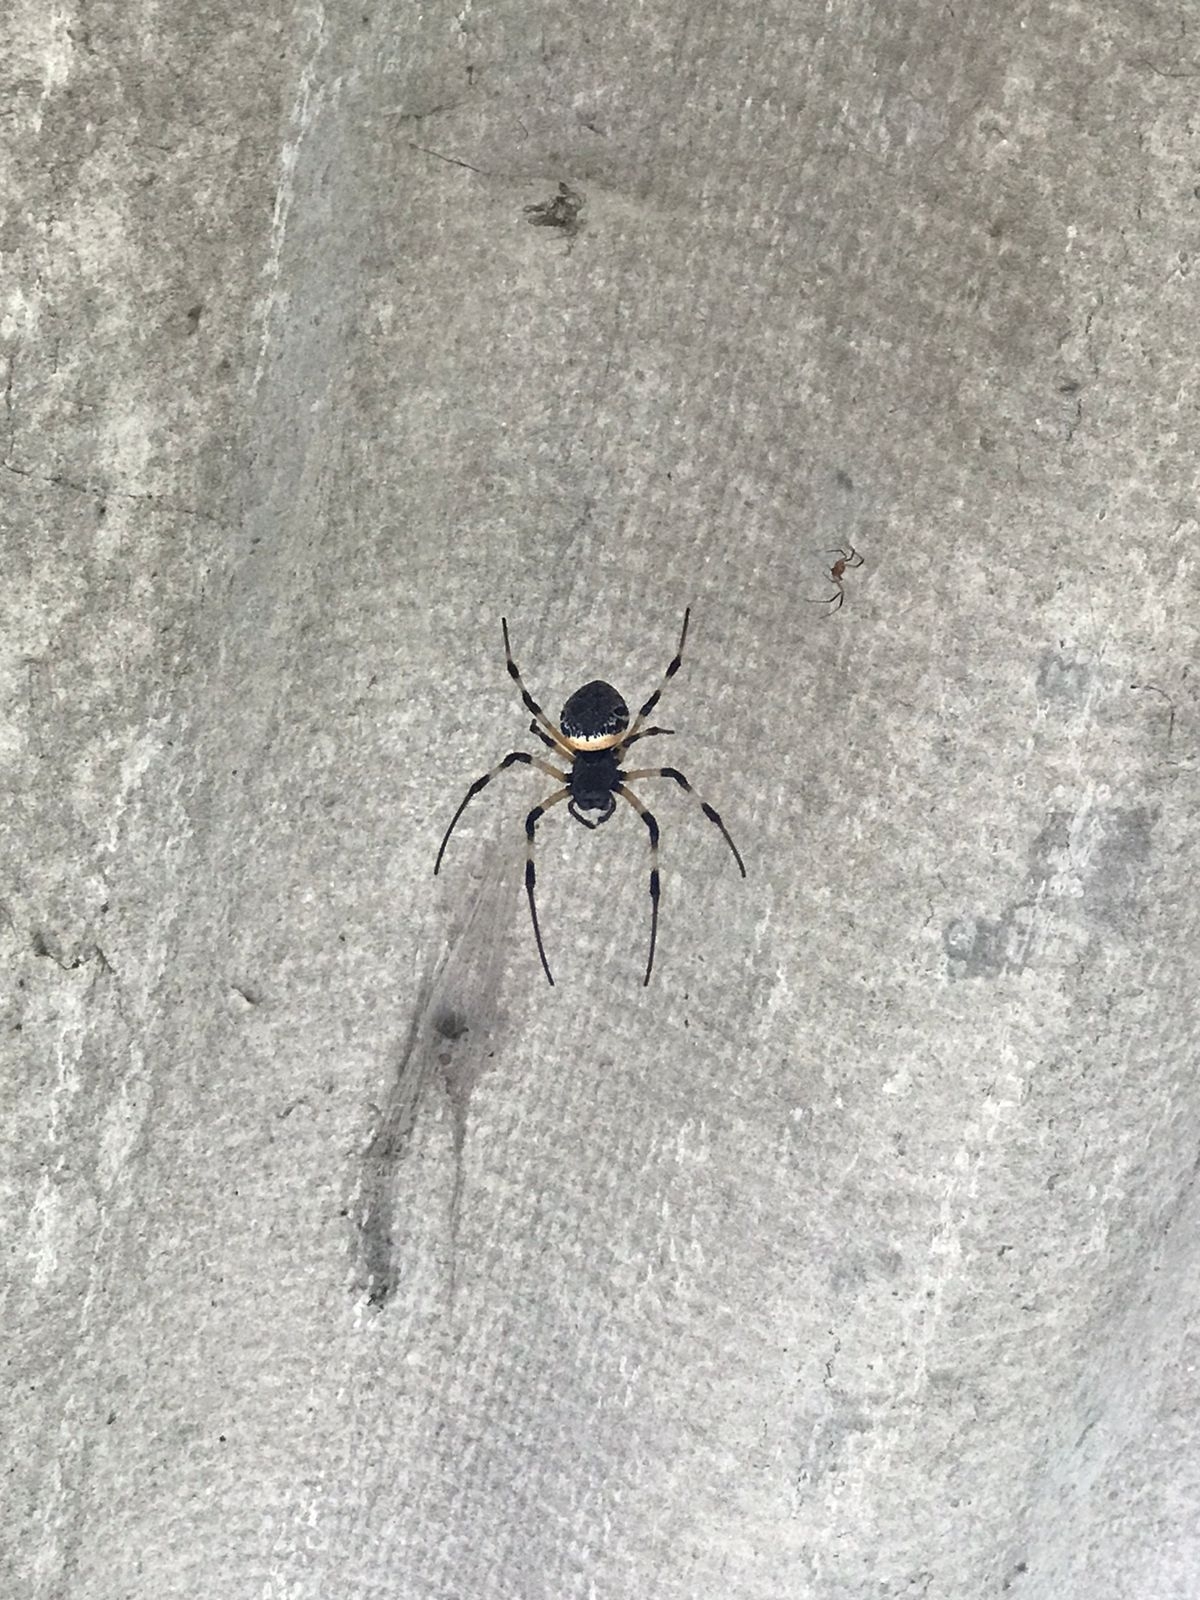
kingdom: Animalia
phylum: Arthropoda
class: Arachnida
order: Araneae
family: Araneidae
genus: Nephilingis
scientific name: Nephilingis cruentata
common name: African hermit spider
